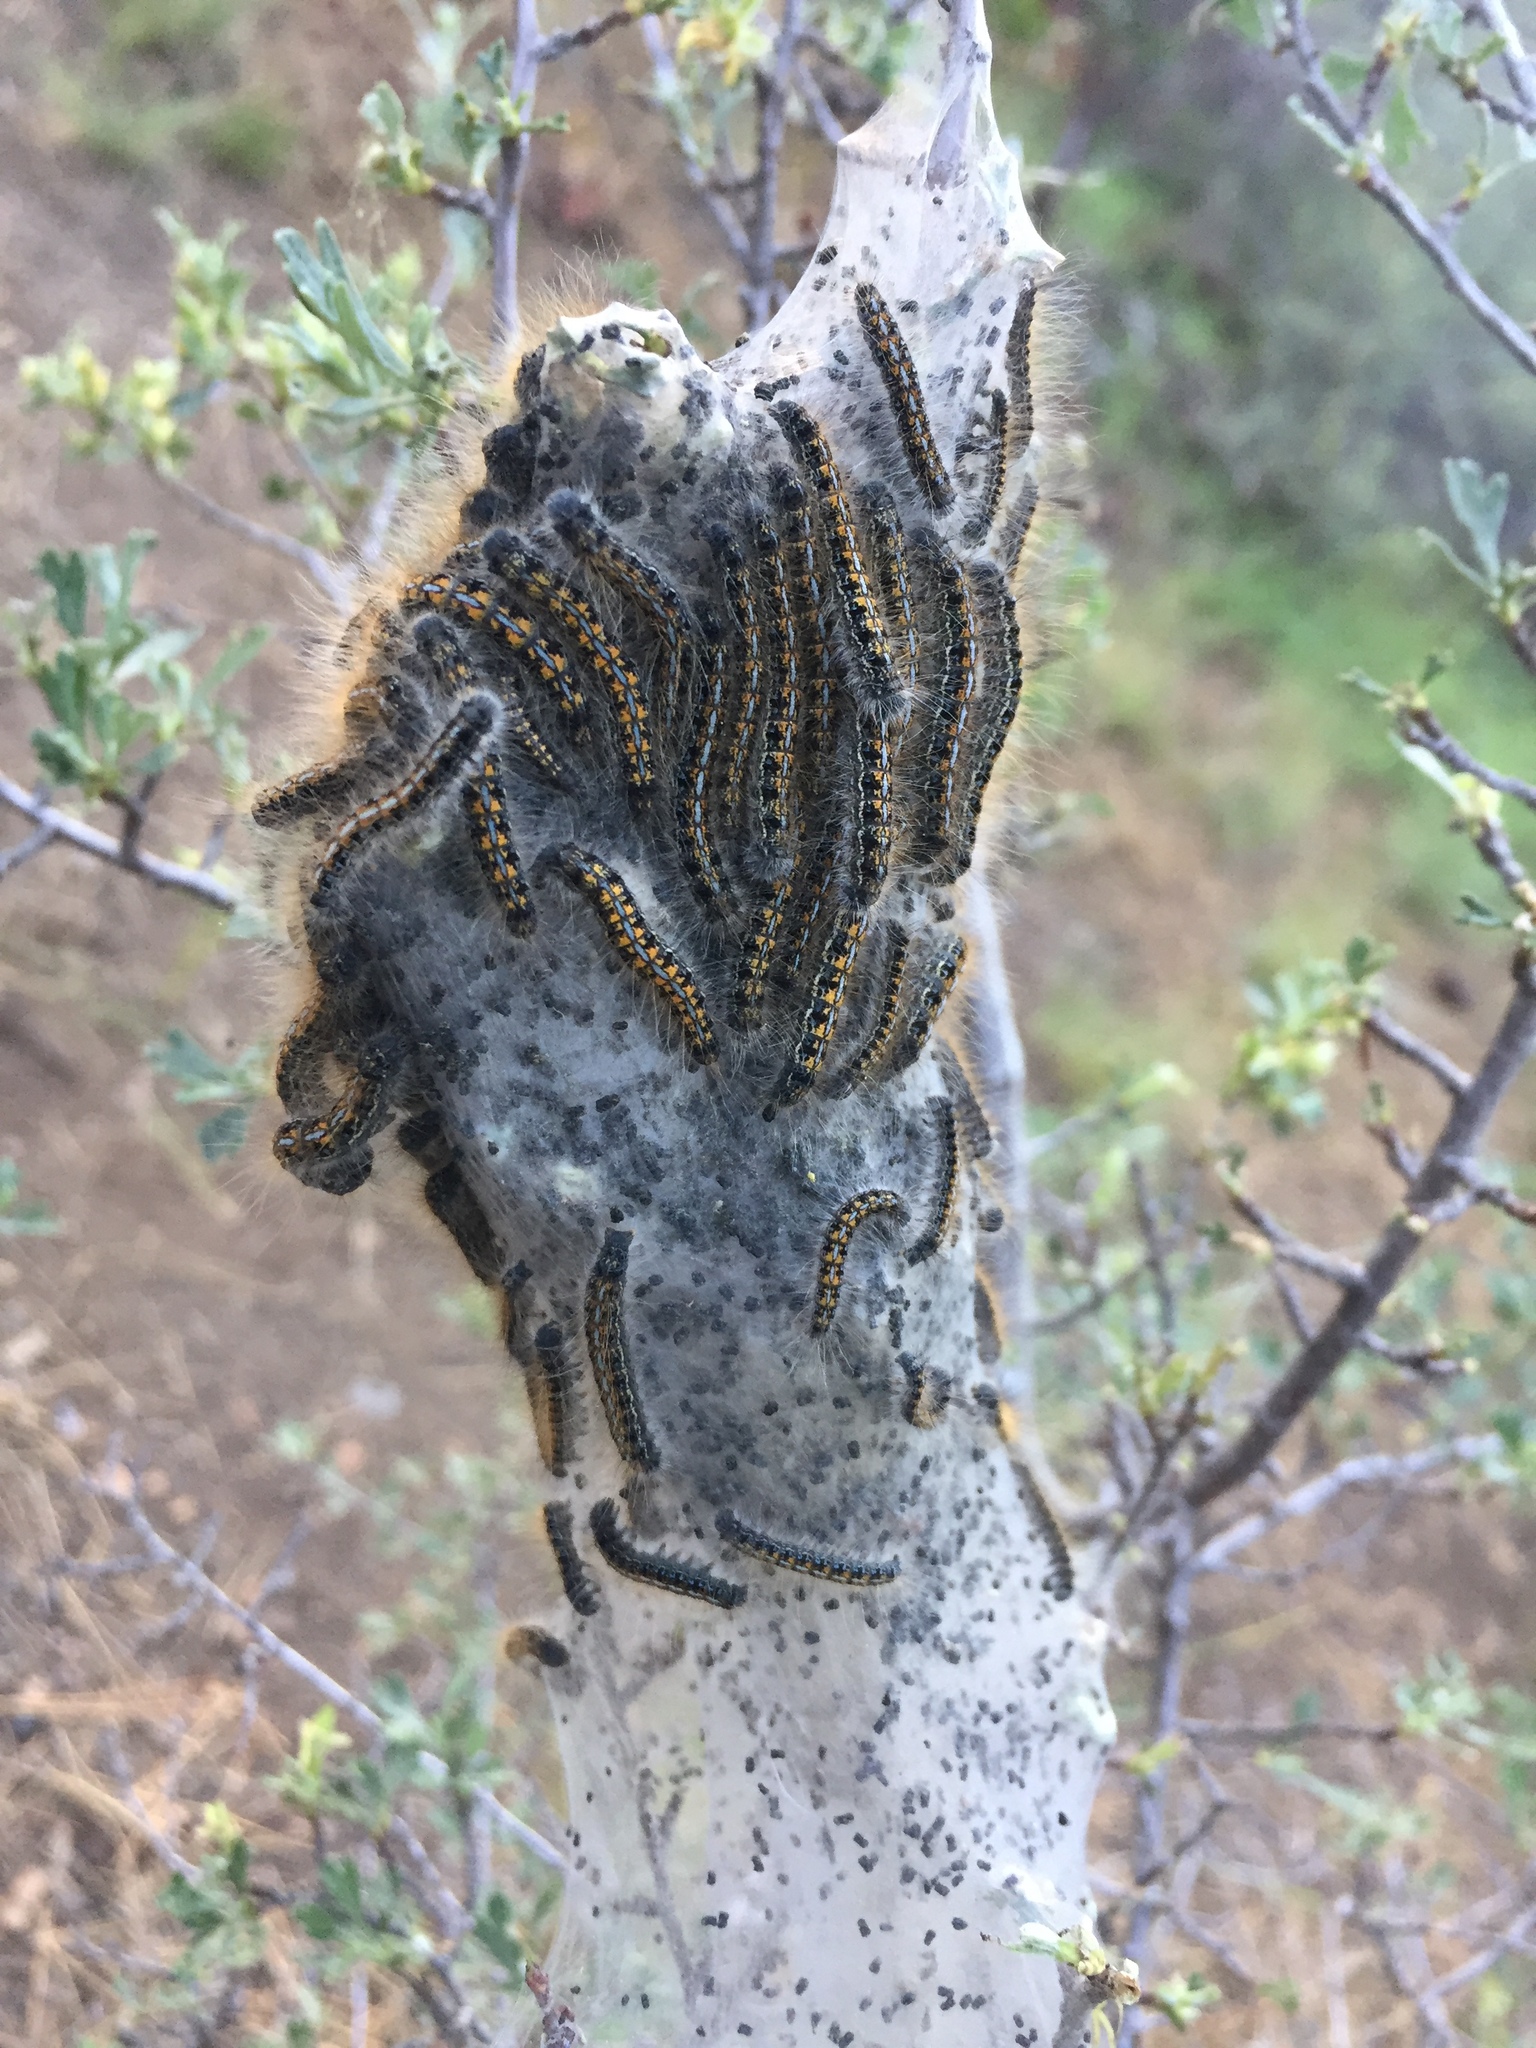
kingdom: Animalia
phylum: Arthropoda
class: Insecta
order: Lepidoptera
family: Lasiocampidae
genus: Malacosoma
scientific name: Malacosoma californica
